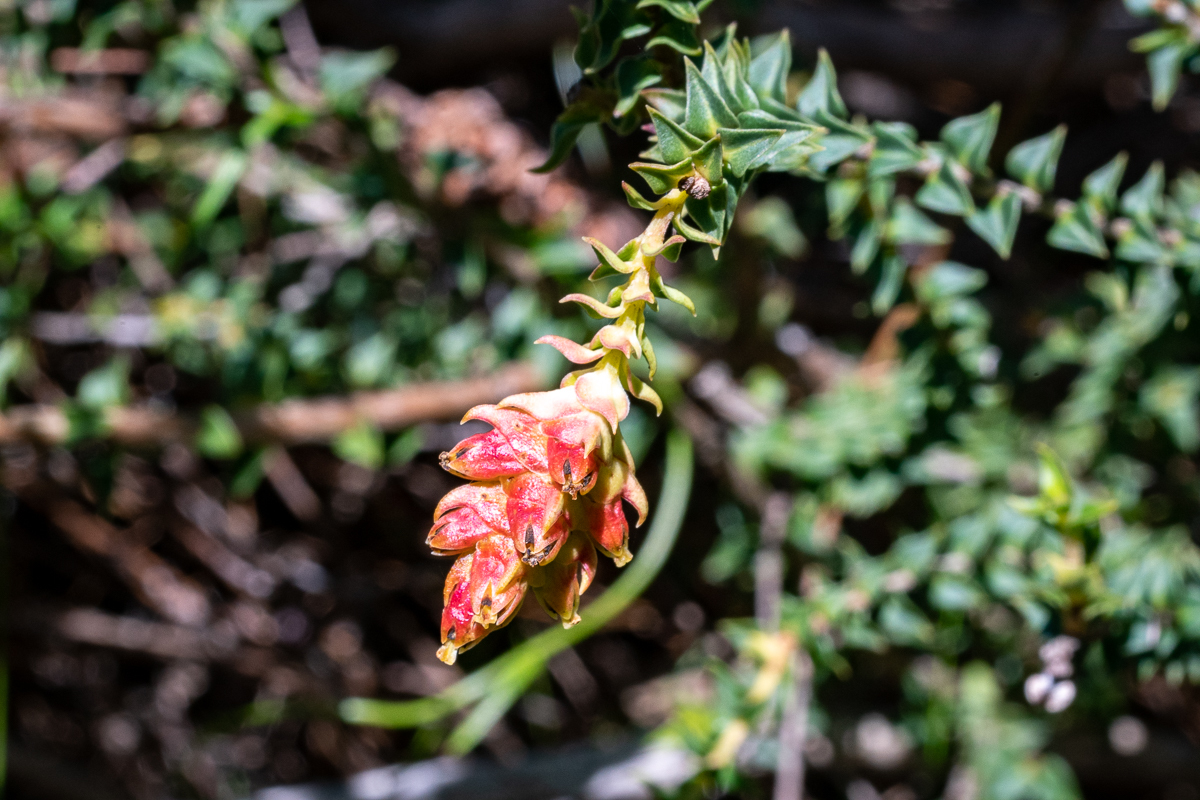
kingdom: Plantae
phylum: Tracheophyta
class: Magnoliopsida
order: Myrtales
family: Penaeaceae
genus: Penaea
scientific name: Penaea mucronata
